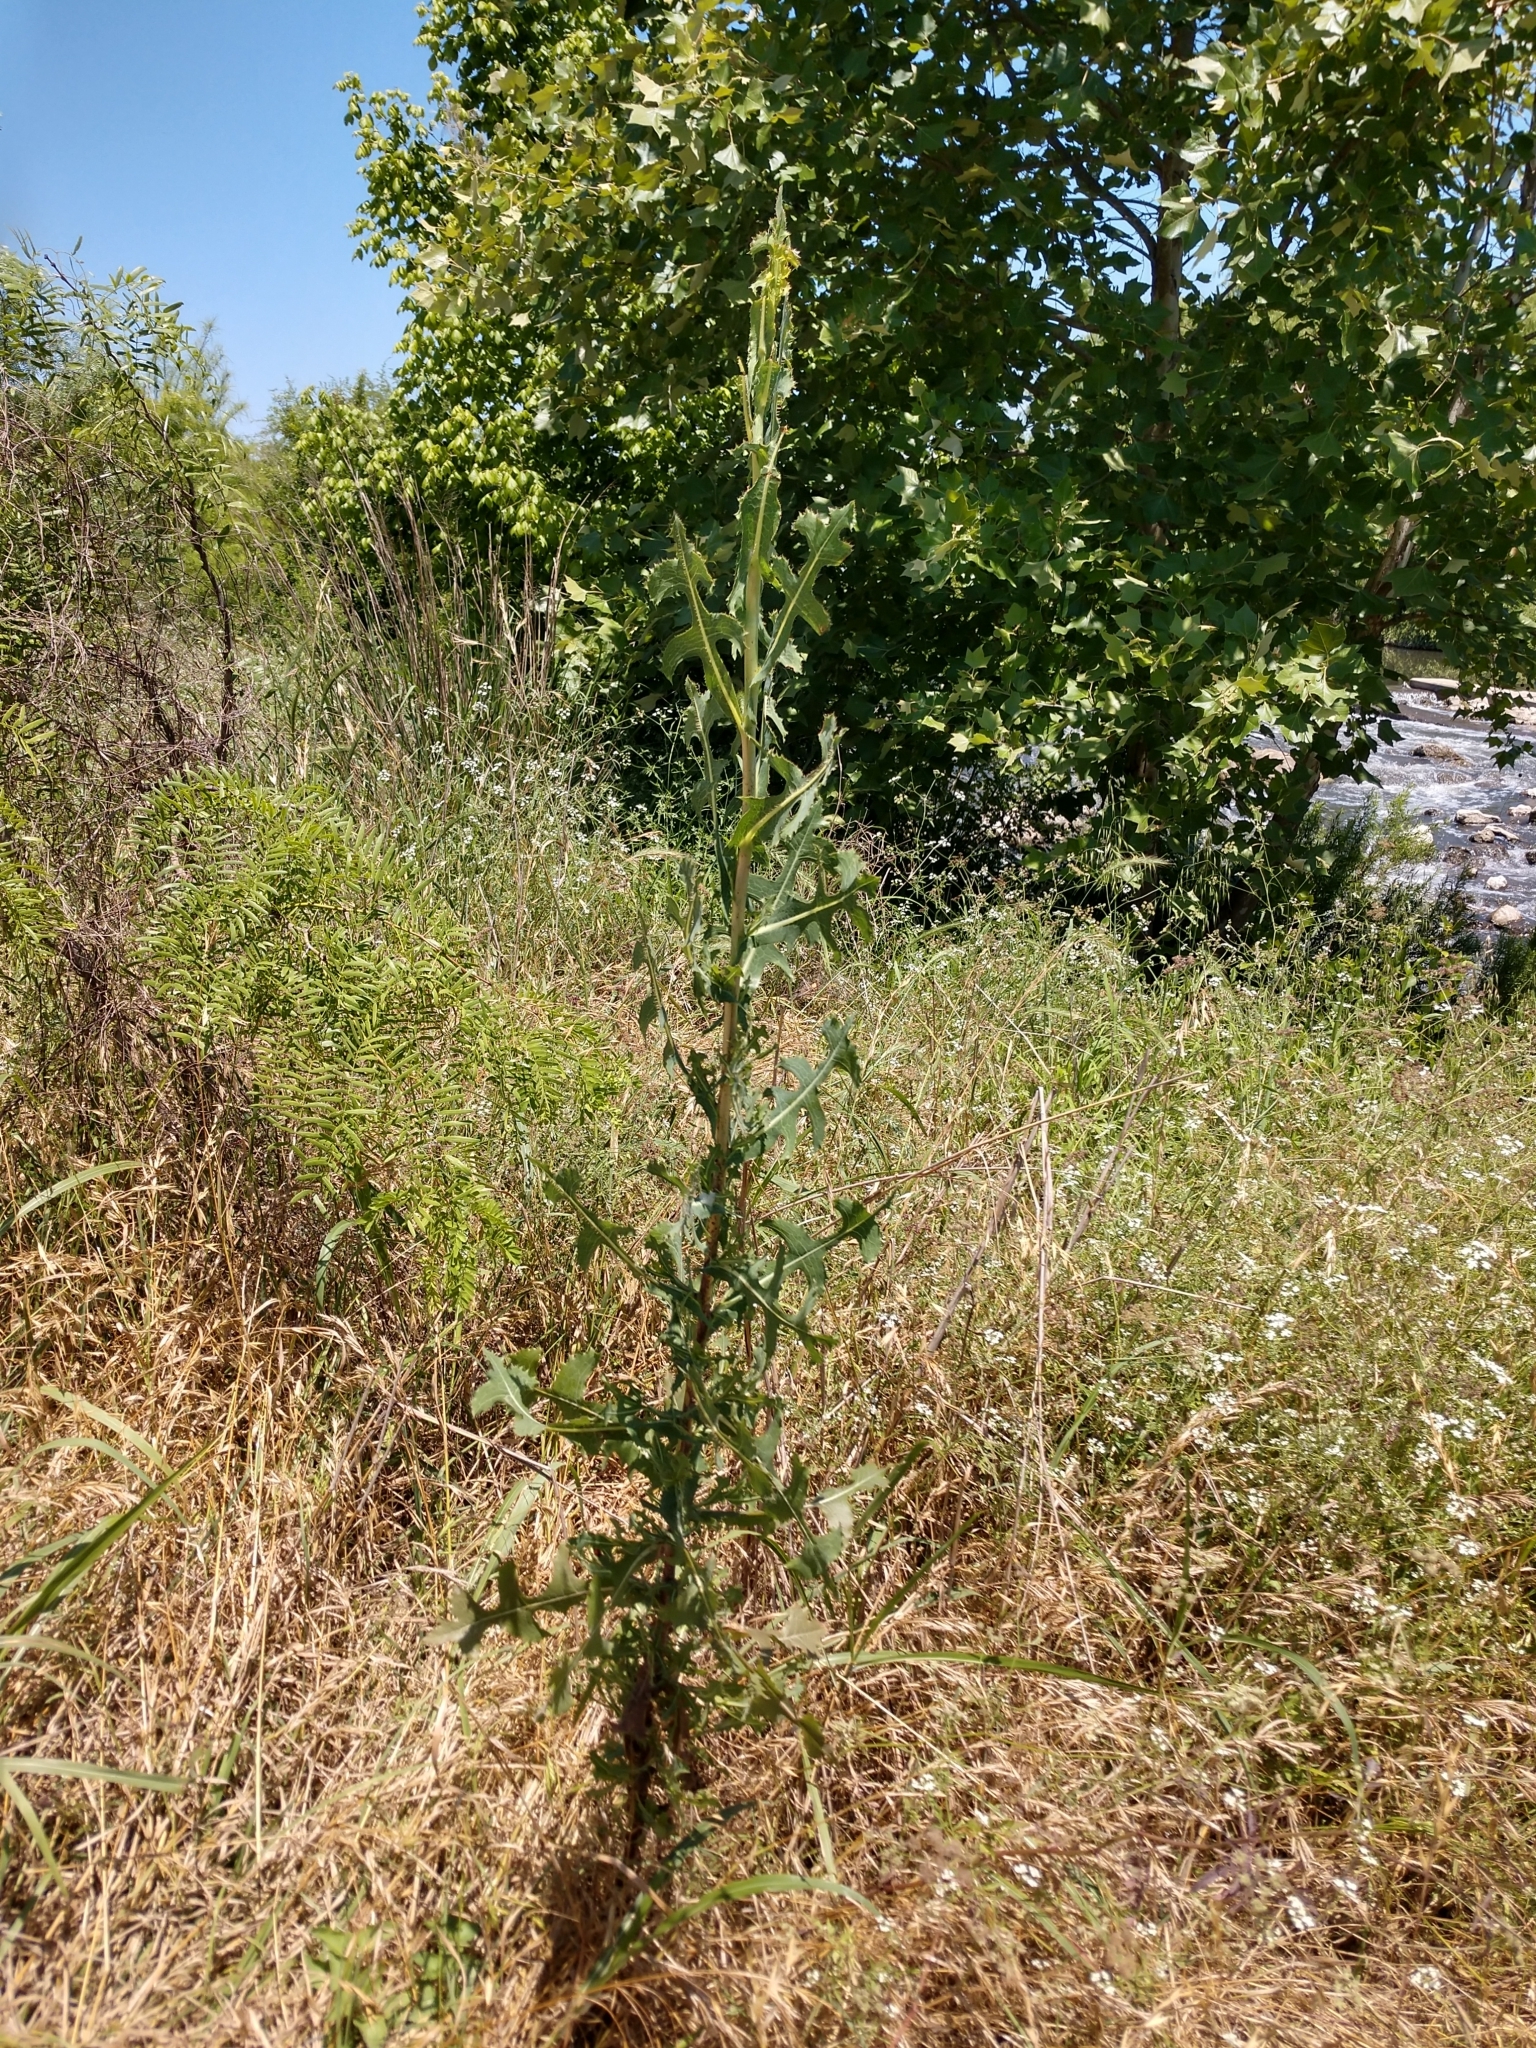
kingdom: Plantae
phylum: Tracheophyta
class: Magnoliopsida
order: Asterales
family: Asteraceae
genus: Lactuca
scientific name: Lactuca serriola
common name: Prickly lettuce
